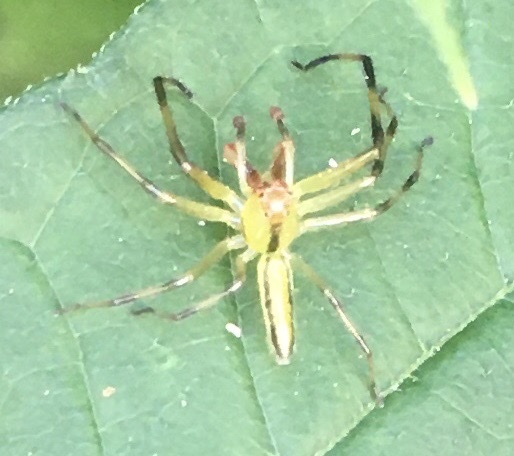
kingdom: Animalia
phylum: Arthropoda
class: Arachnida
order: Araneae
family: Salticidae
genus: Lyssomanes
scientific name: Lyssomanes viridis
